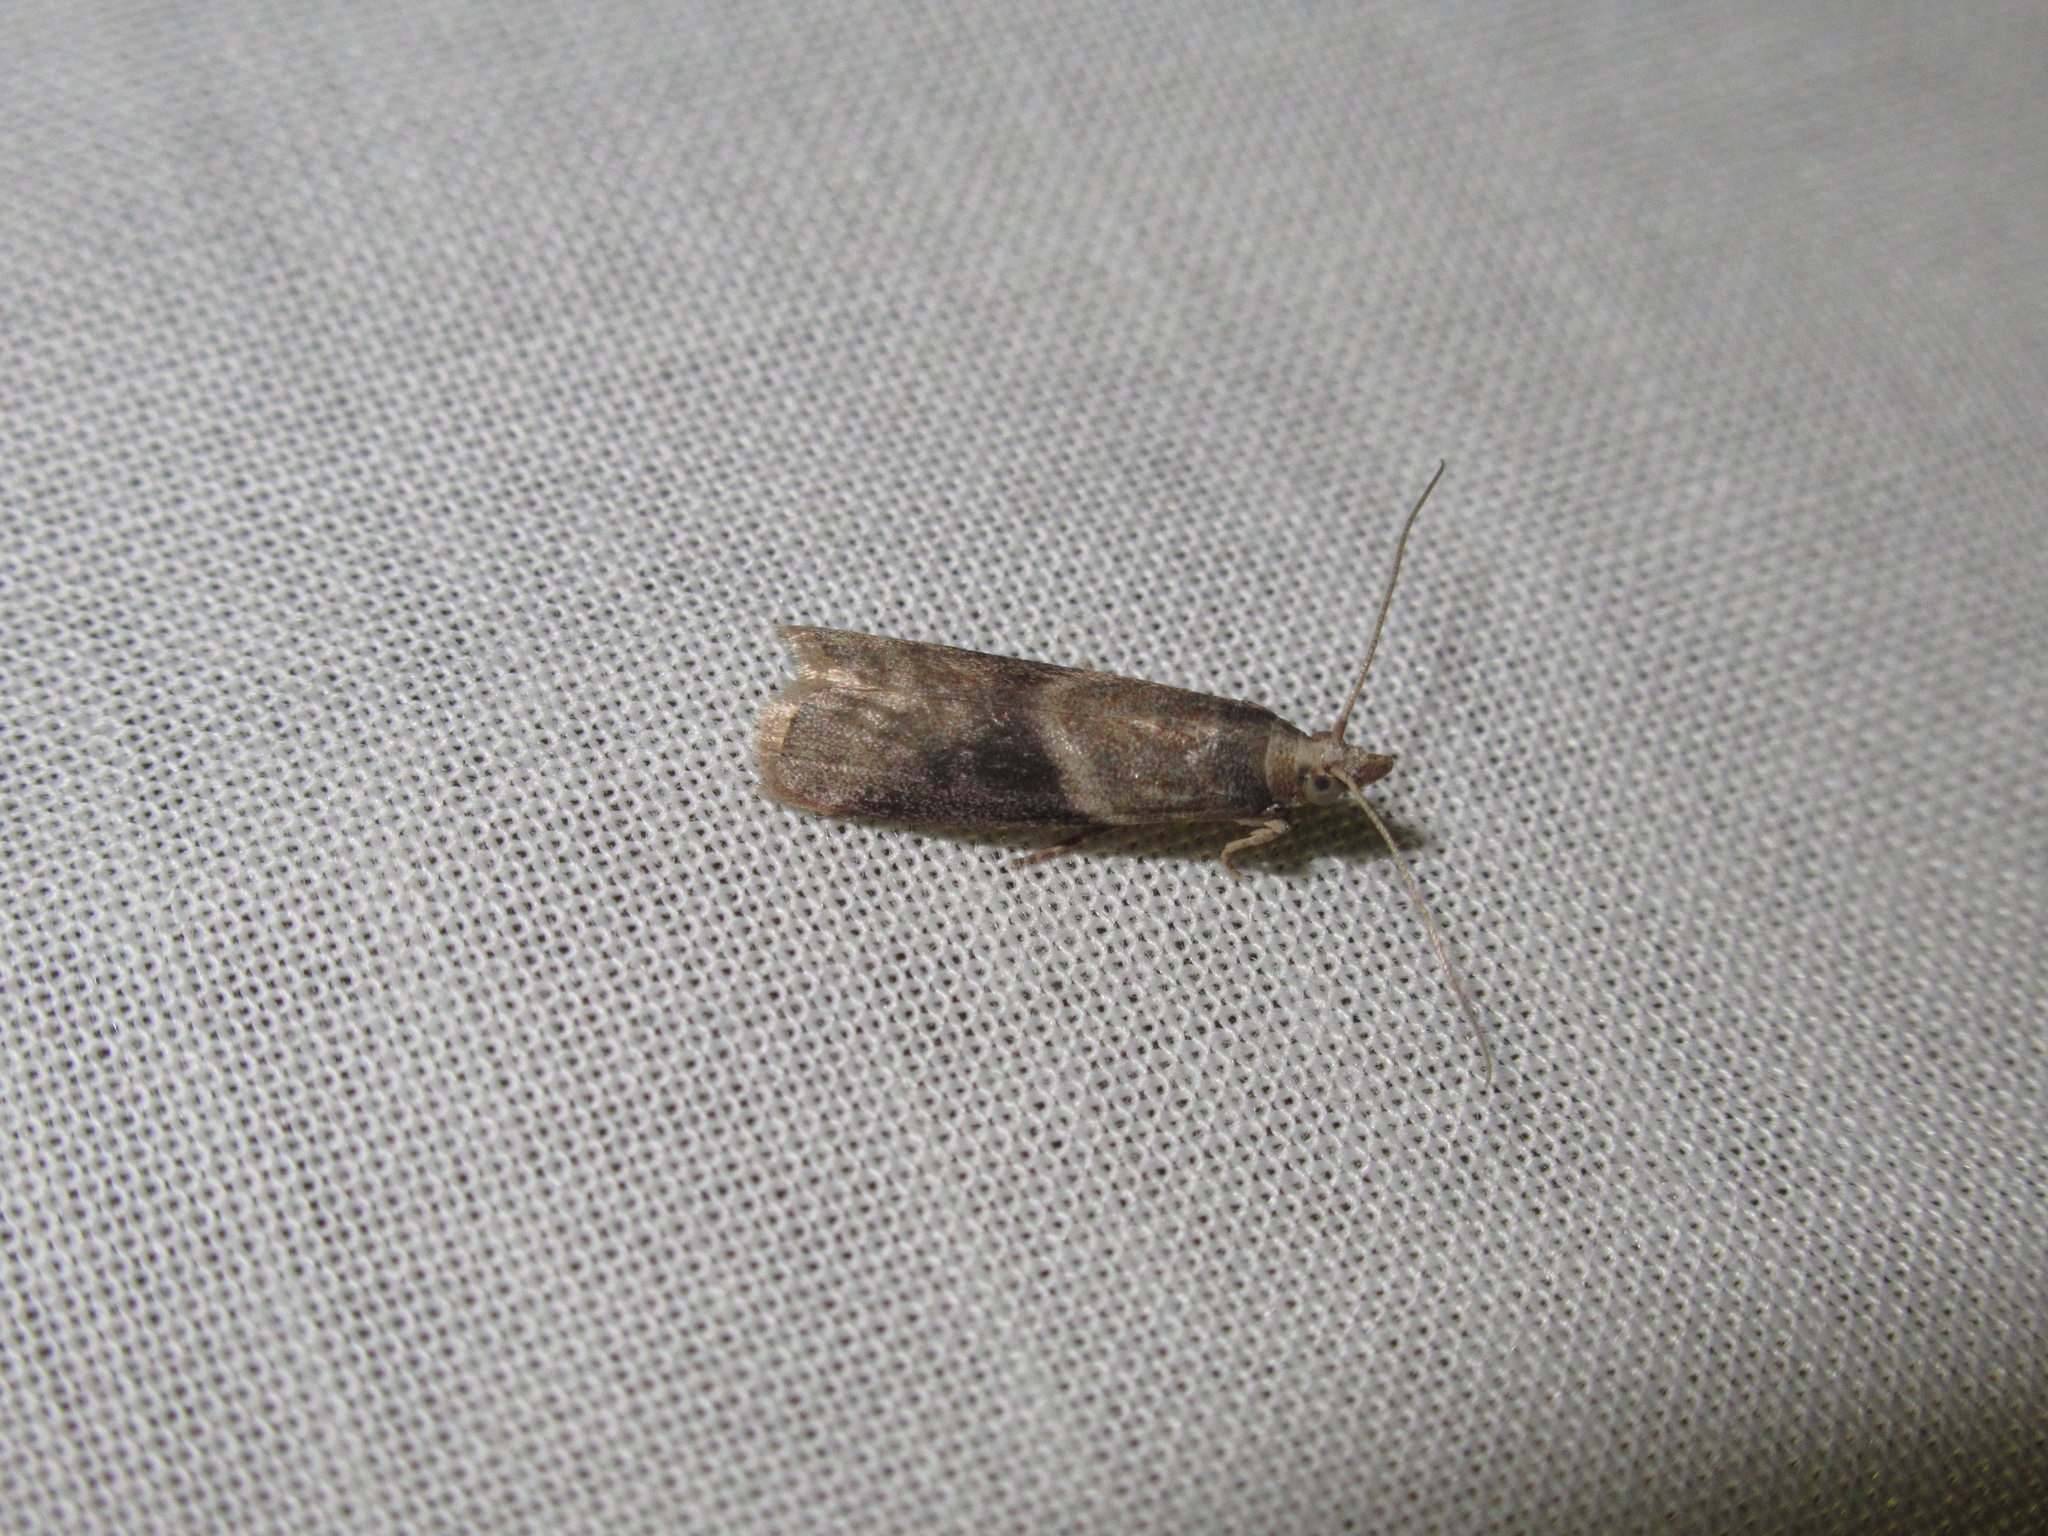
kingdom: Animalia
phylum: Arthropoda
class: Insecta
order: Lepidoptera
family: Pyralidae
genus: Ptyomaxia
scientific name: Ptyomaxia trigonogramma
